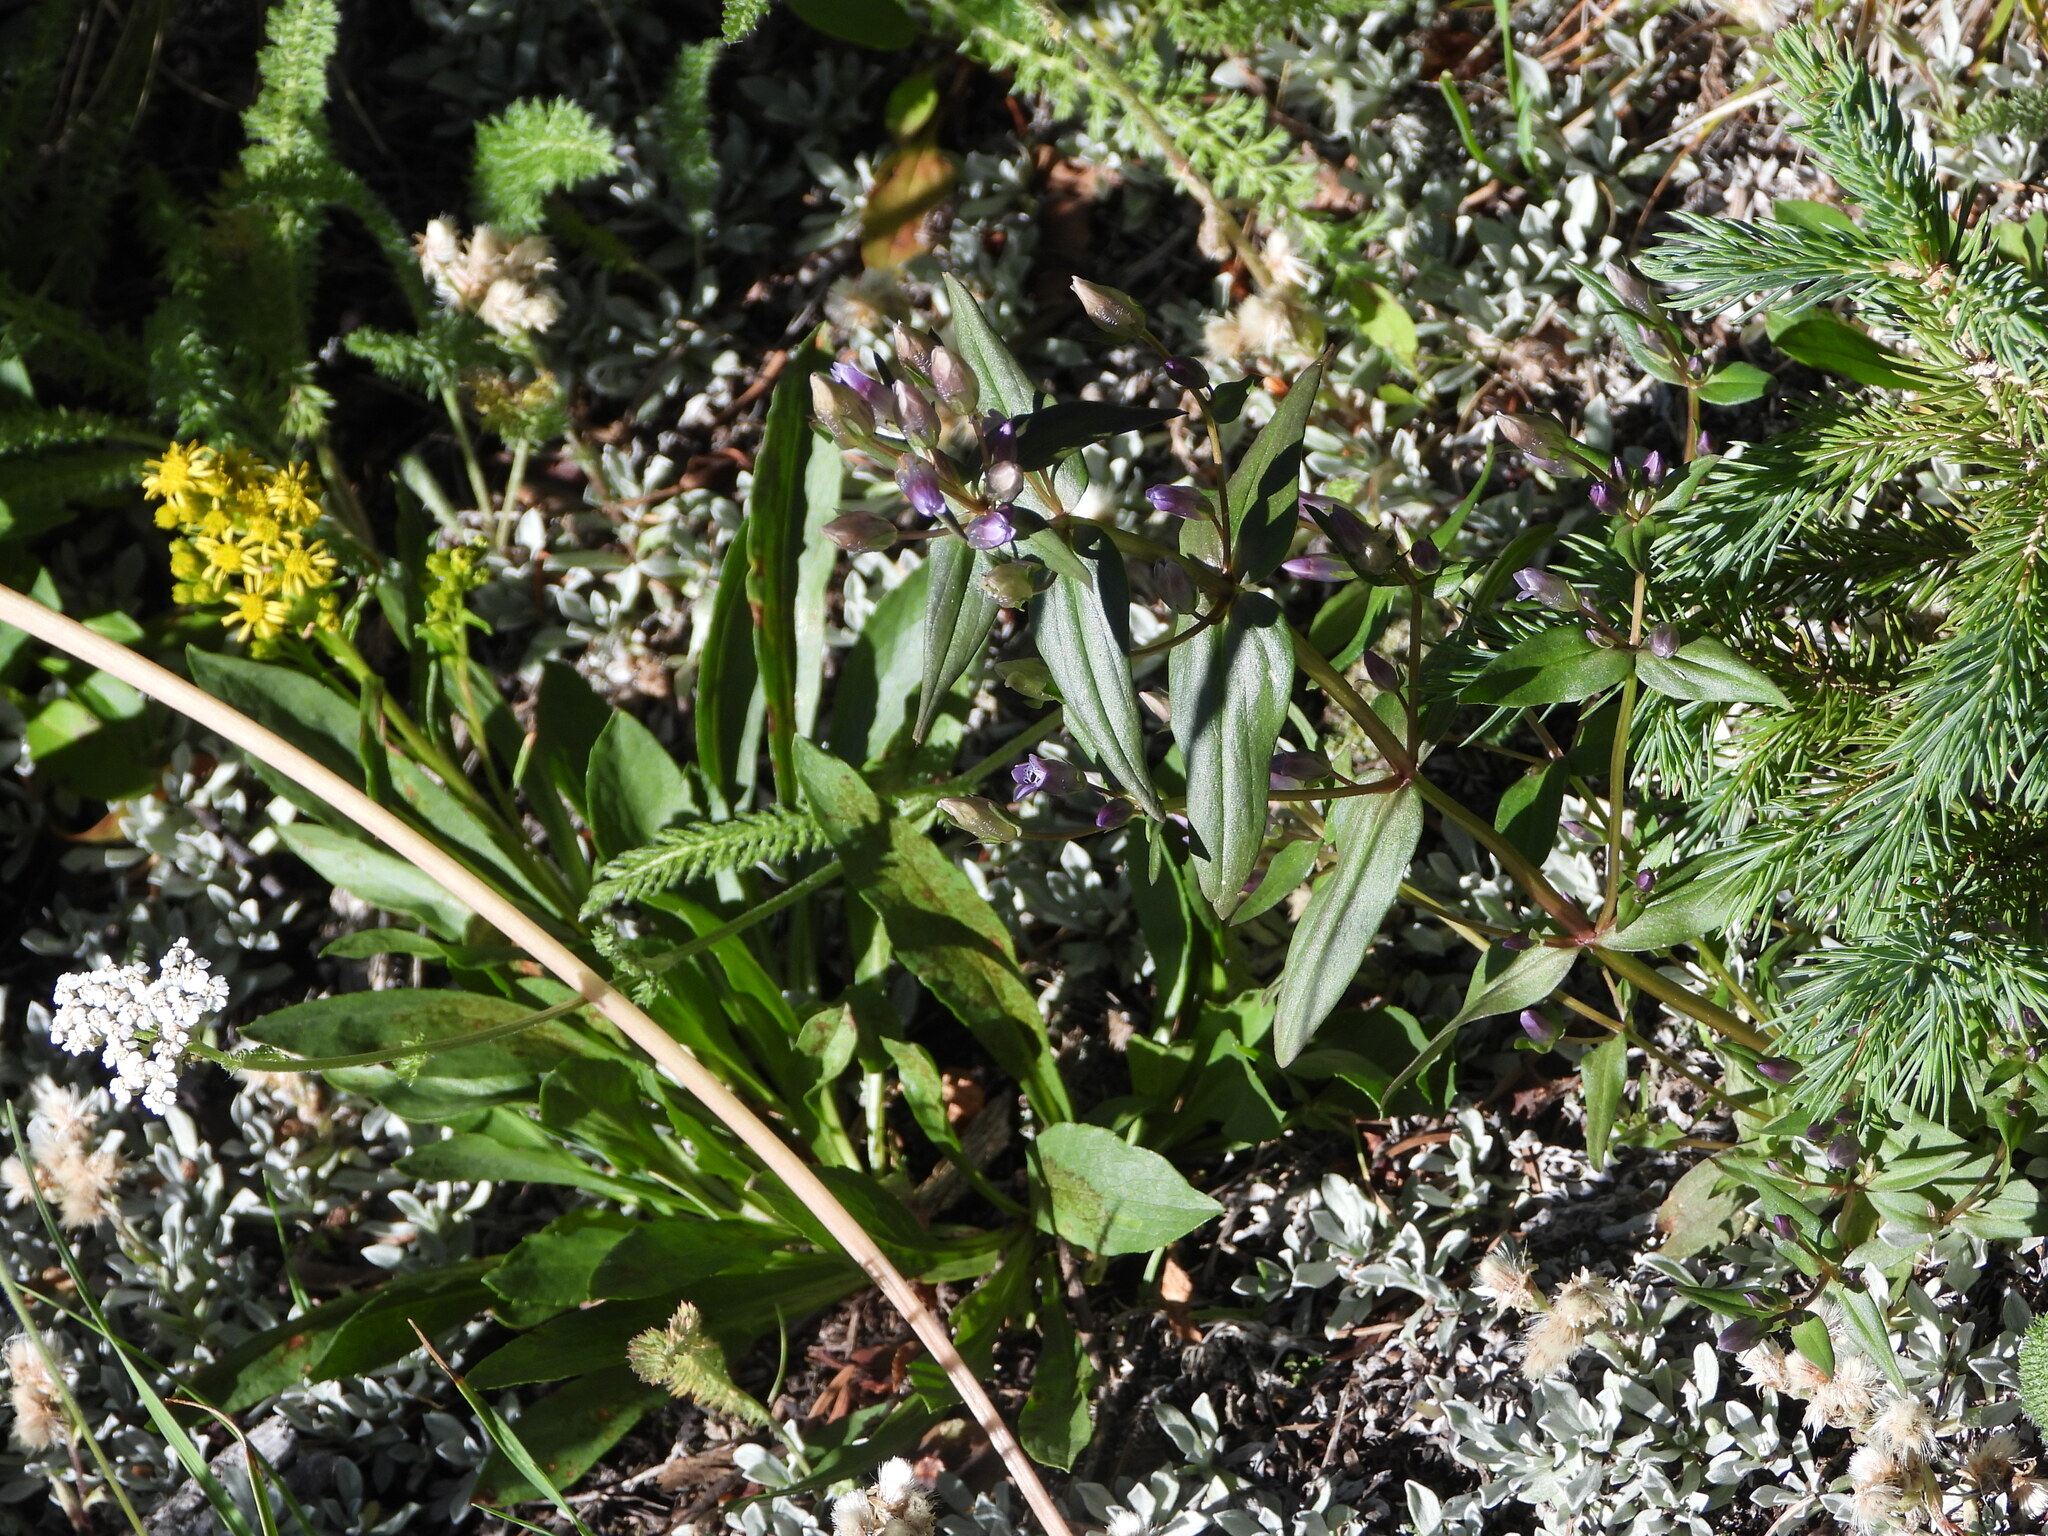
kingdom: Plantae
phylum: Tracheophyta
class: Magnoliopsida
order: Gentianales
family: Gentianaceae
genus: Gentianella
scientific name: Gentianella amarella
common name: Autumn gentian
